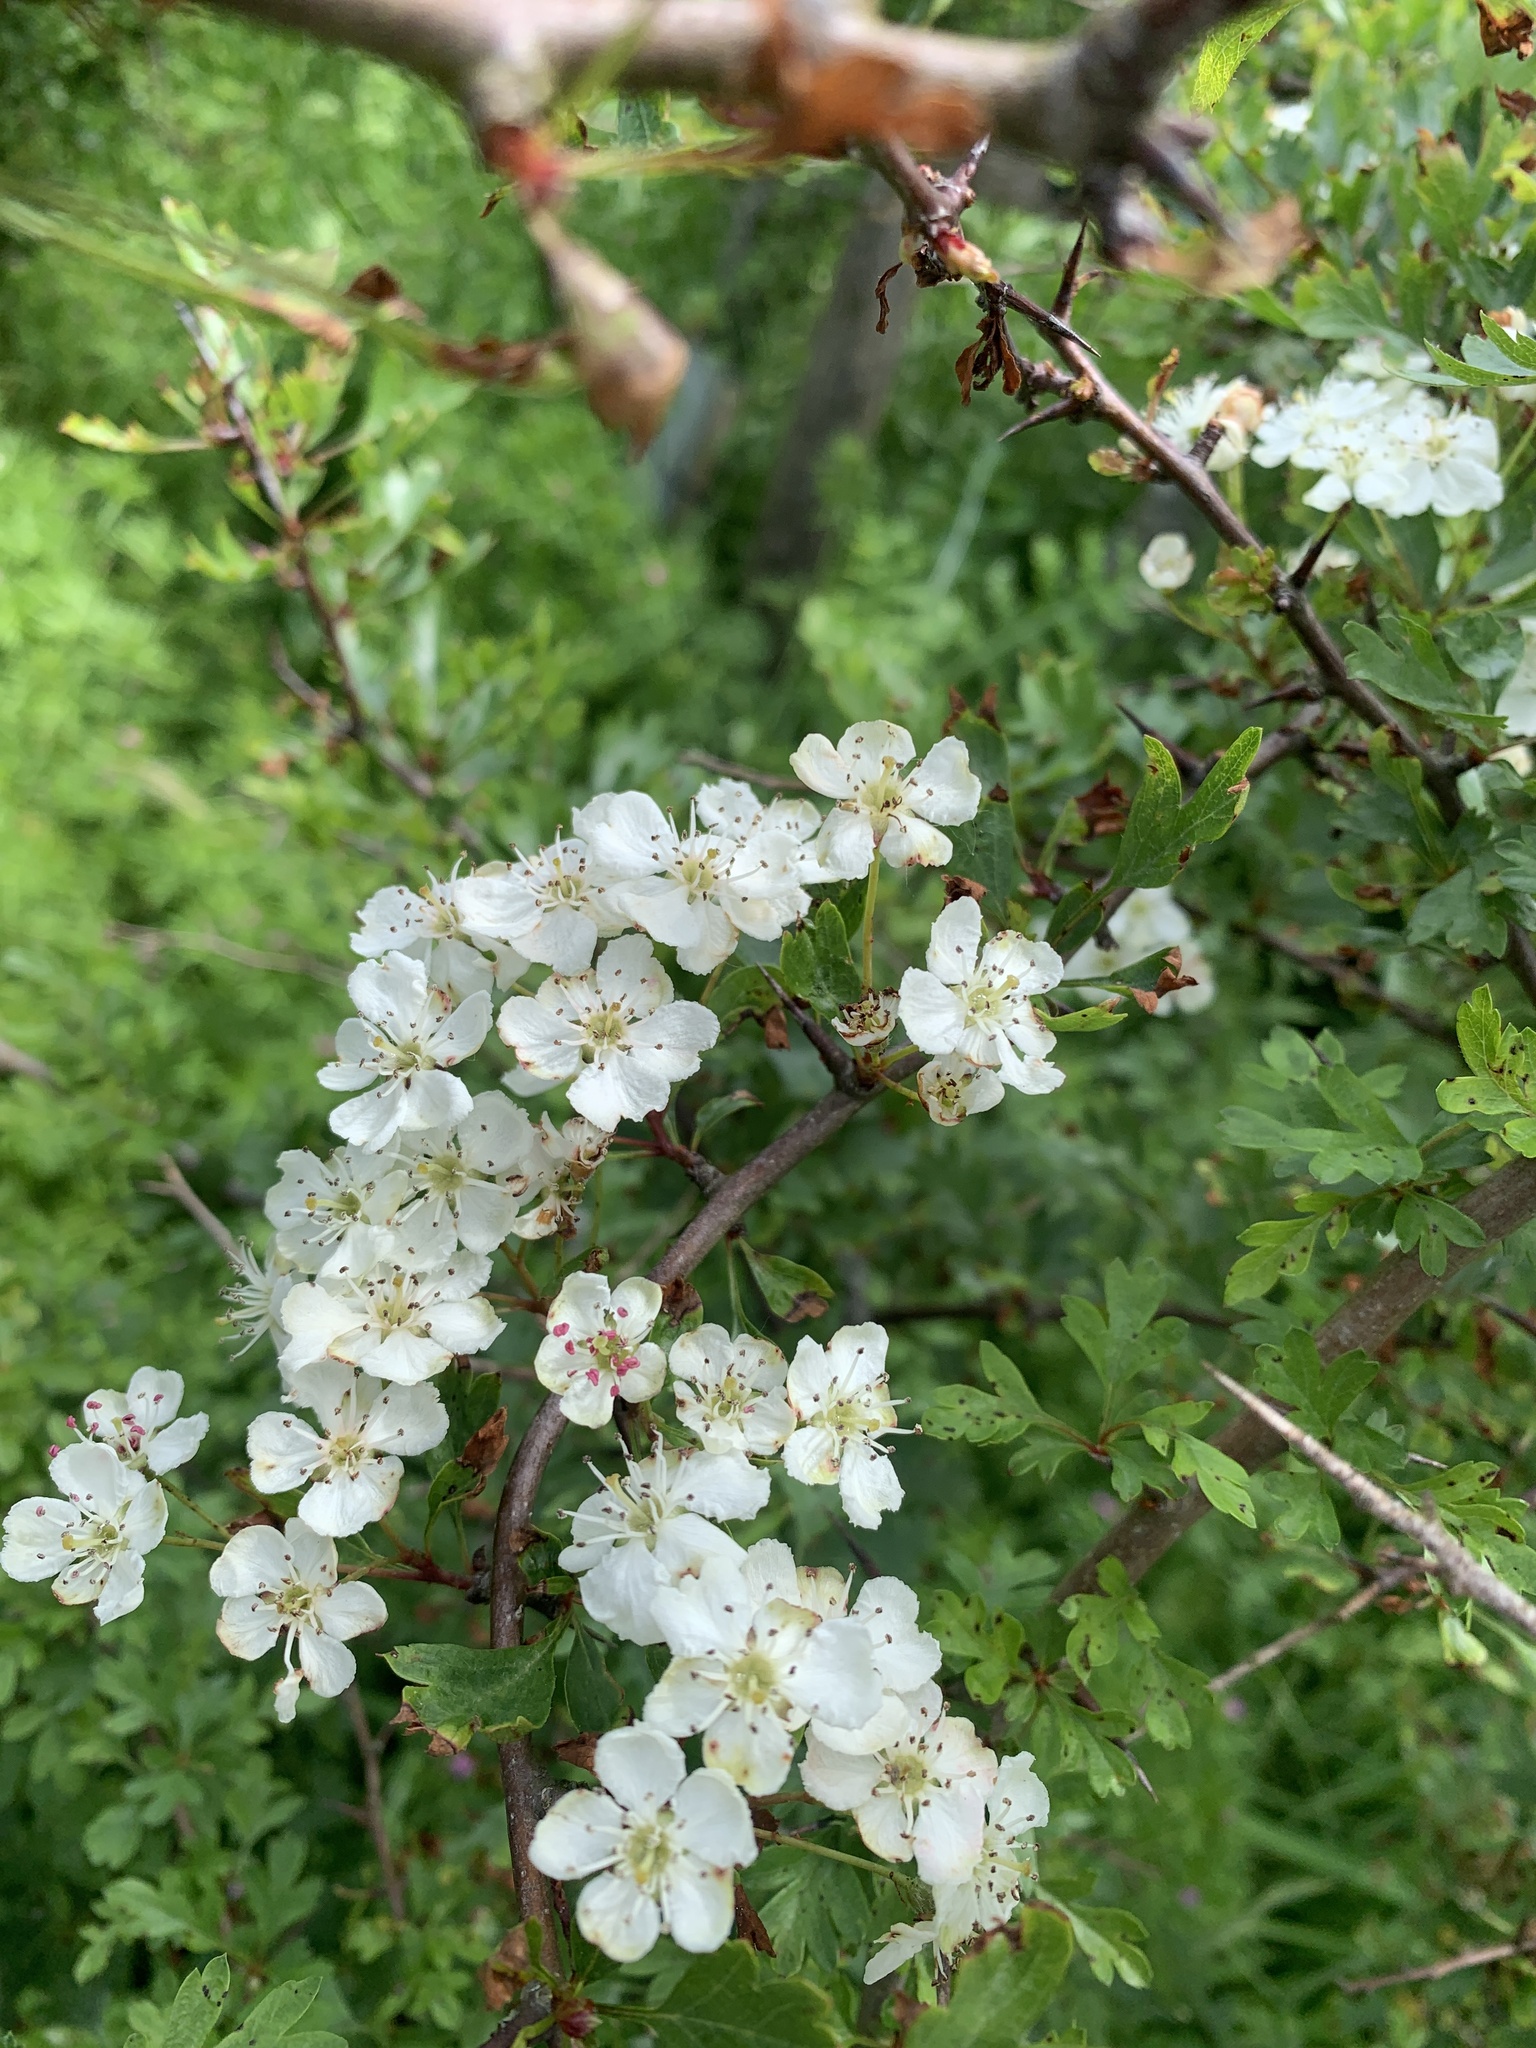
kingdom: Plantae
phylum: Tracheophyta
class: Magnoliopsida
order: Rosales
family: Rosaceae
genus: Crataegus
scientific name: Crataegus monogyna
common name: Hawthorn
